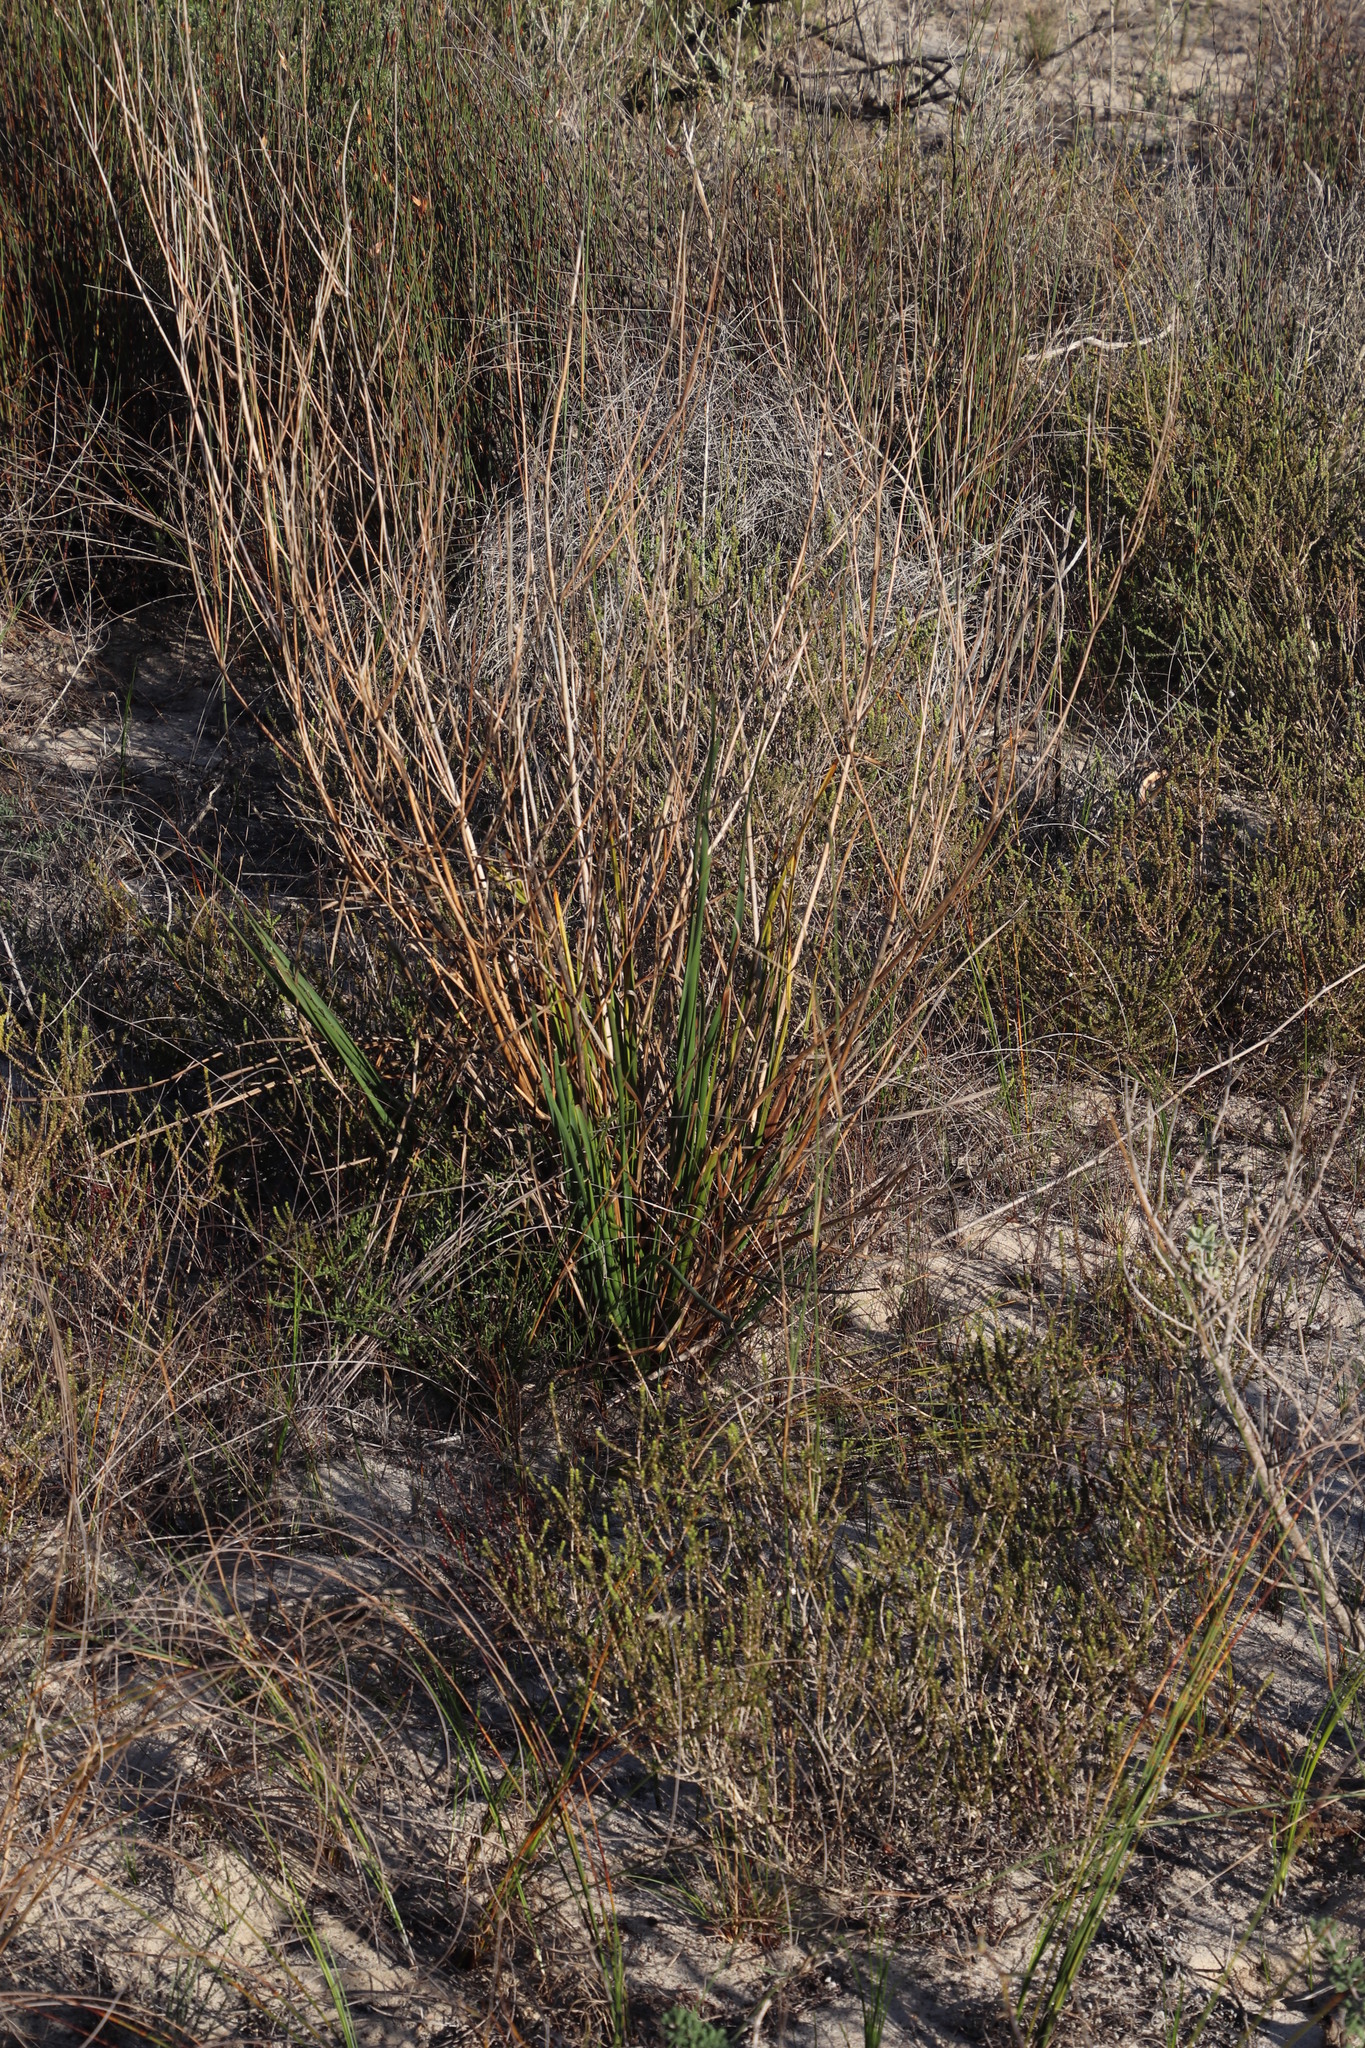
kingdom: Plantae
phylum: Tracheophyta
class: Liliopsida
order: Asparagales
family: Asphodelaceae
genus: Caesia
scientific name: Caesia sabulosa
